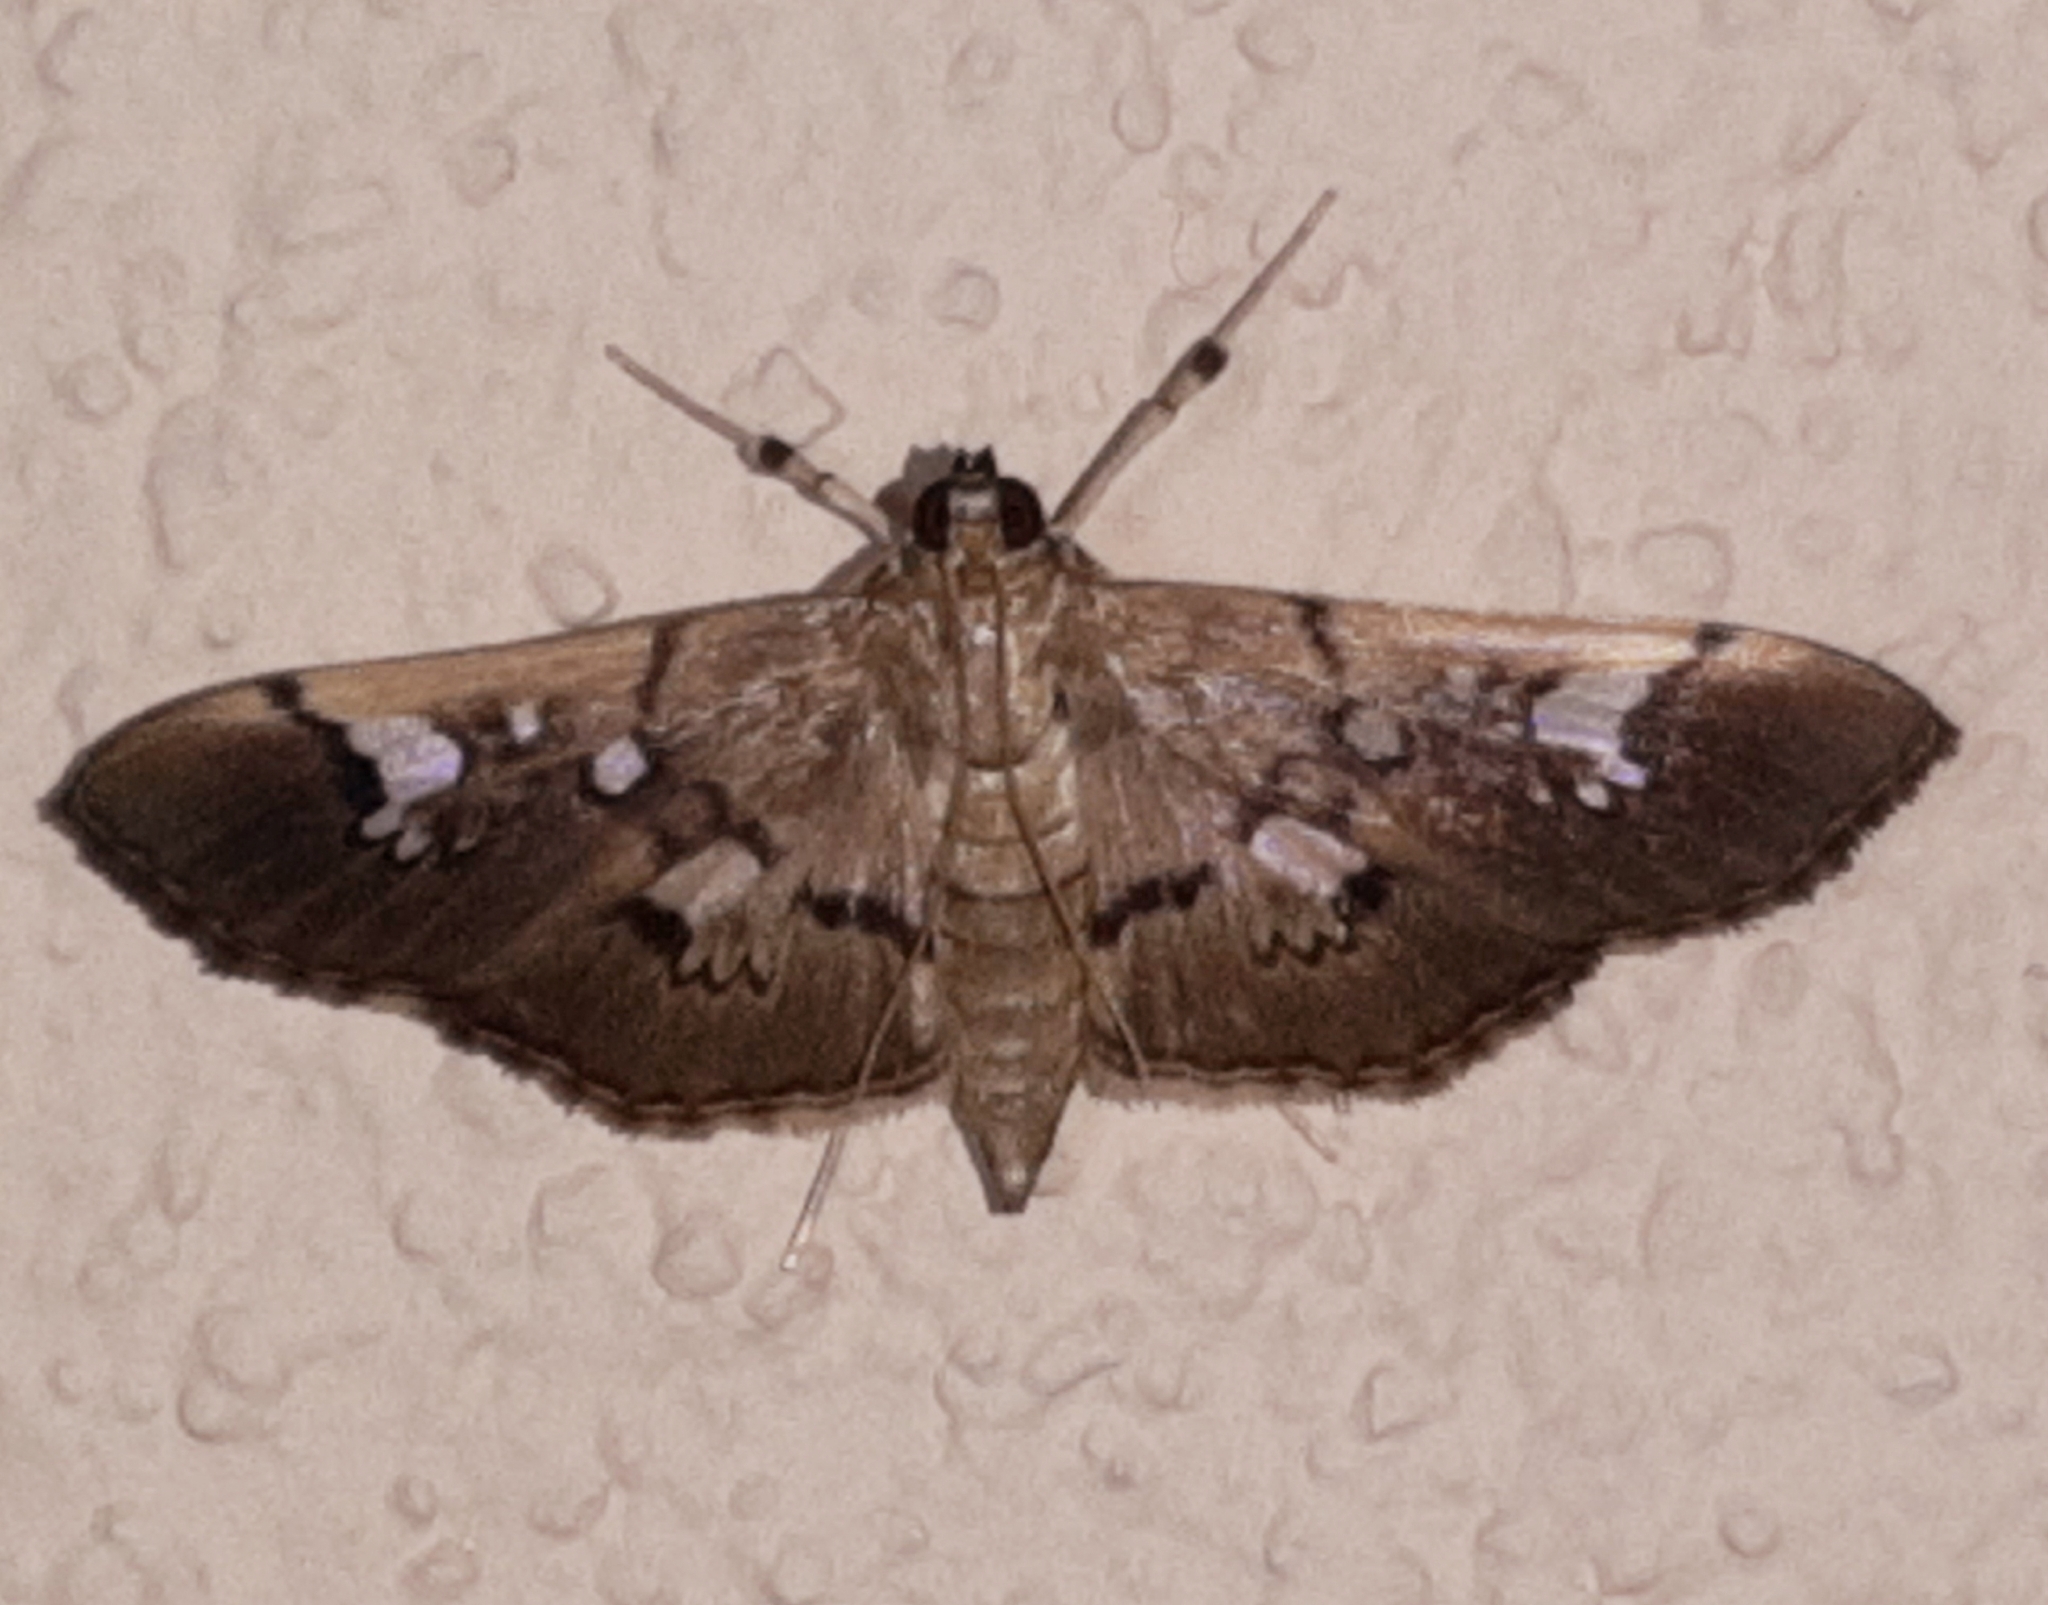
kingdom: Animalia
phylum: Arthropoda
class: Insecta
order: Lepidoptera
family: Crambidae
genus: Microthyris
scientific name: Microthyris
